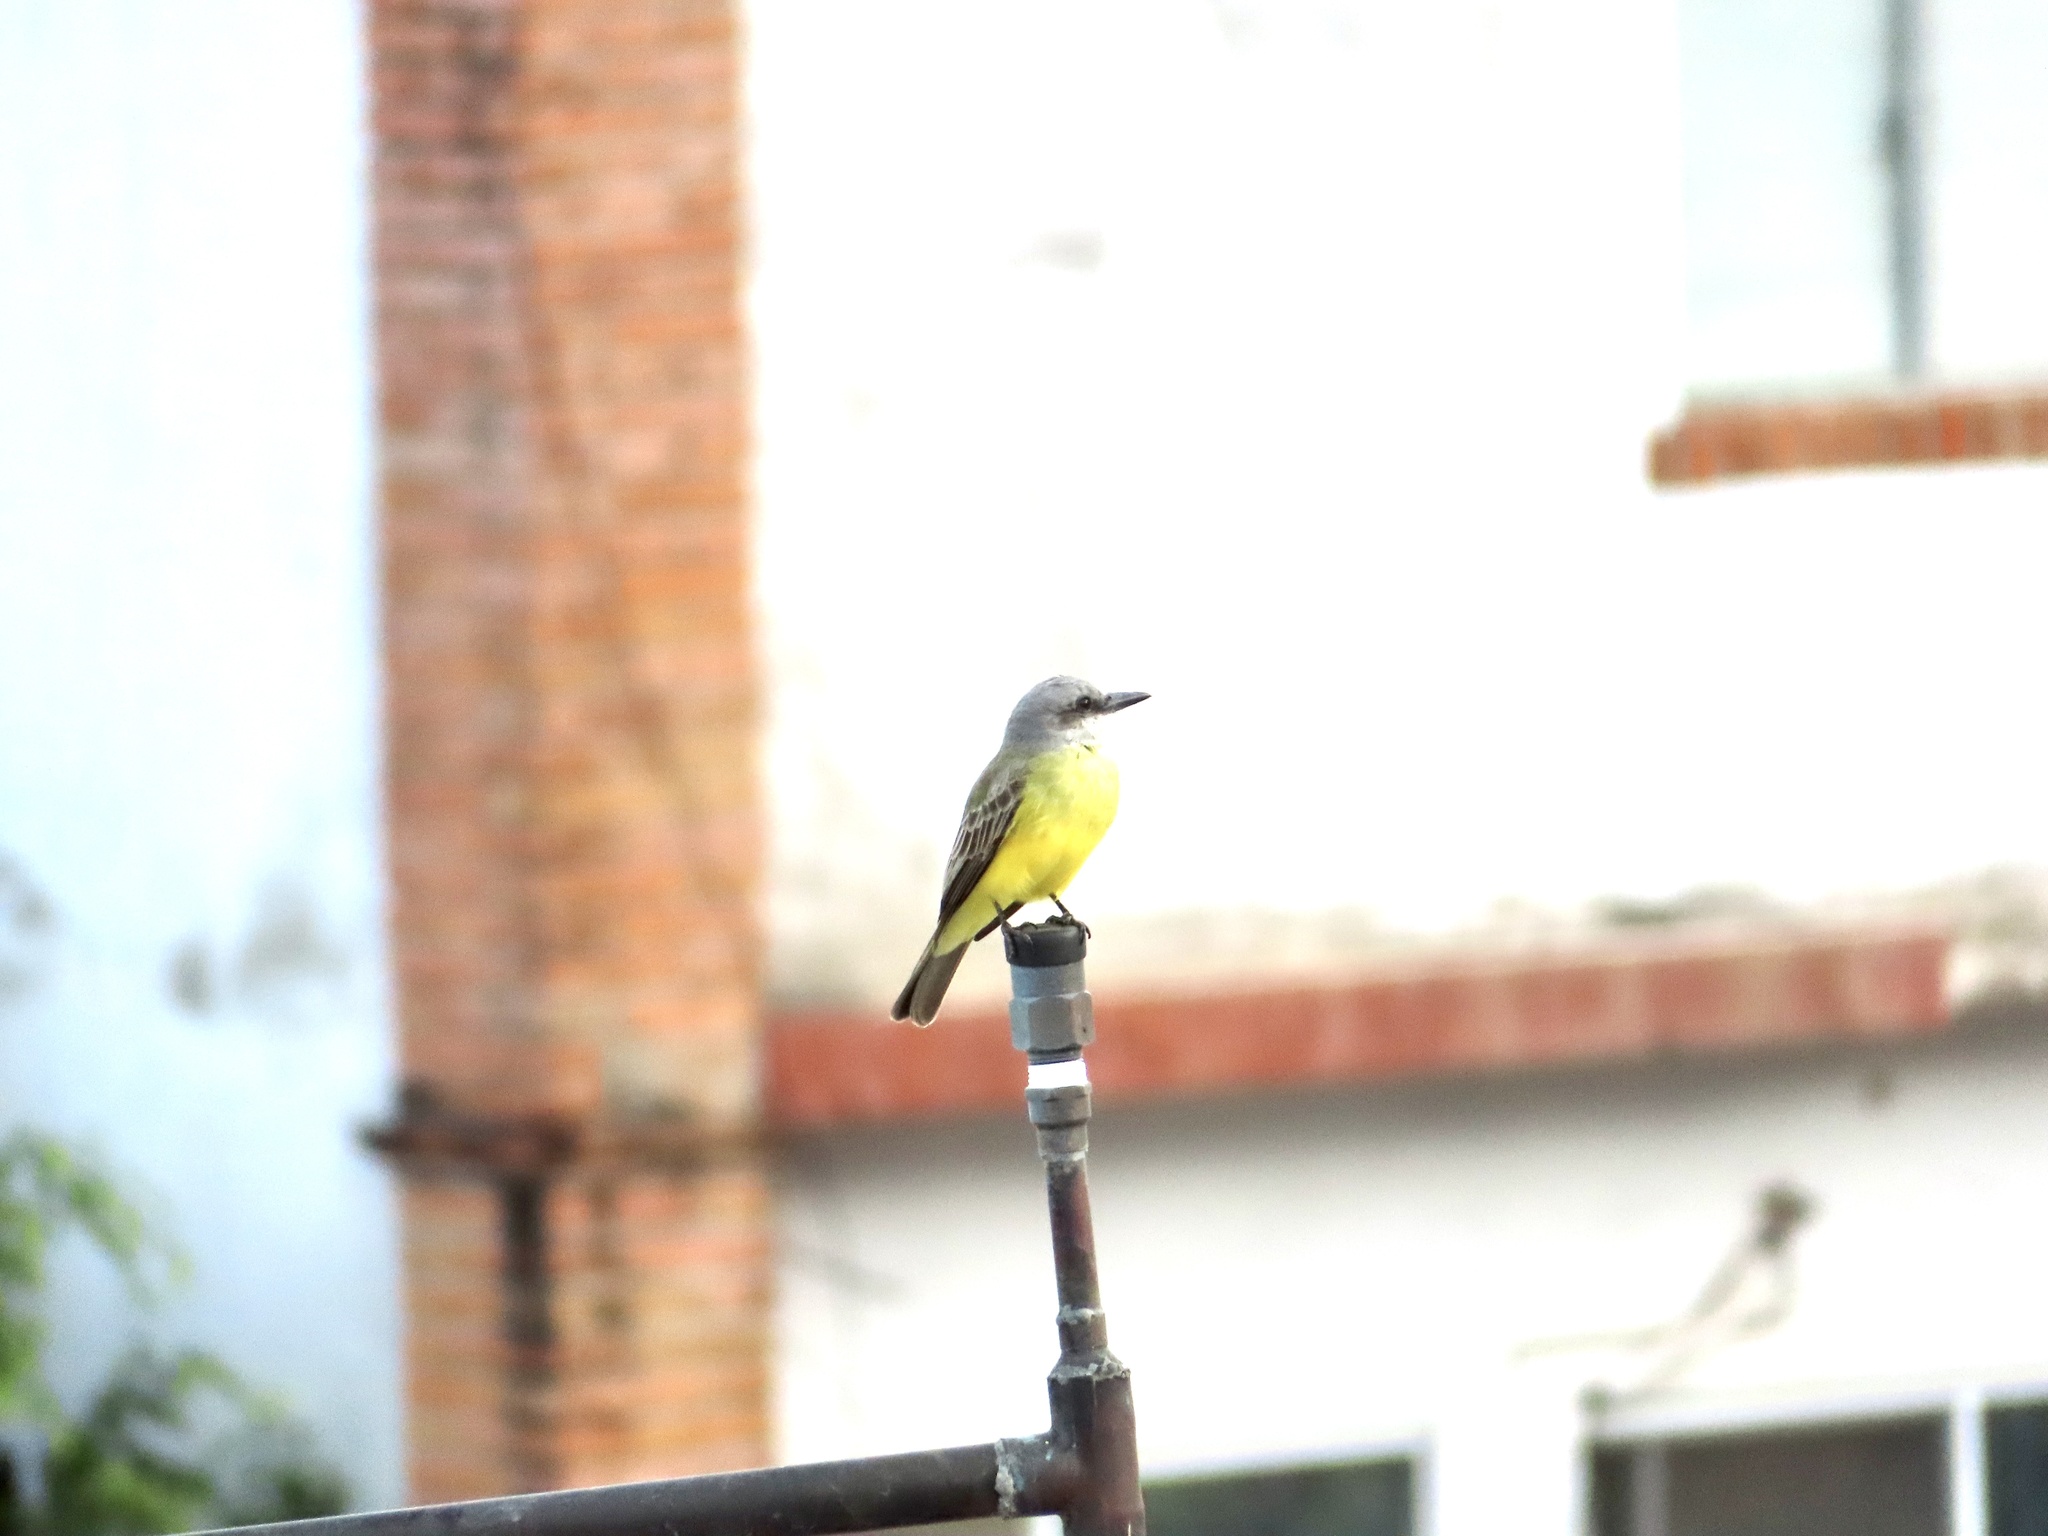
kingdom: Animalia
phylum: Chordata
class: Aves
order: Passeriformes
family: Tyrannidae
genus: Tyrannus
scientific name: Tyrannus melancholicus
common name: Tropical kingbird
